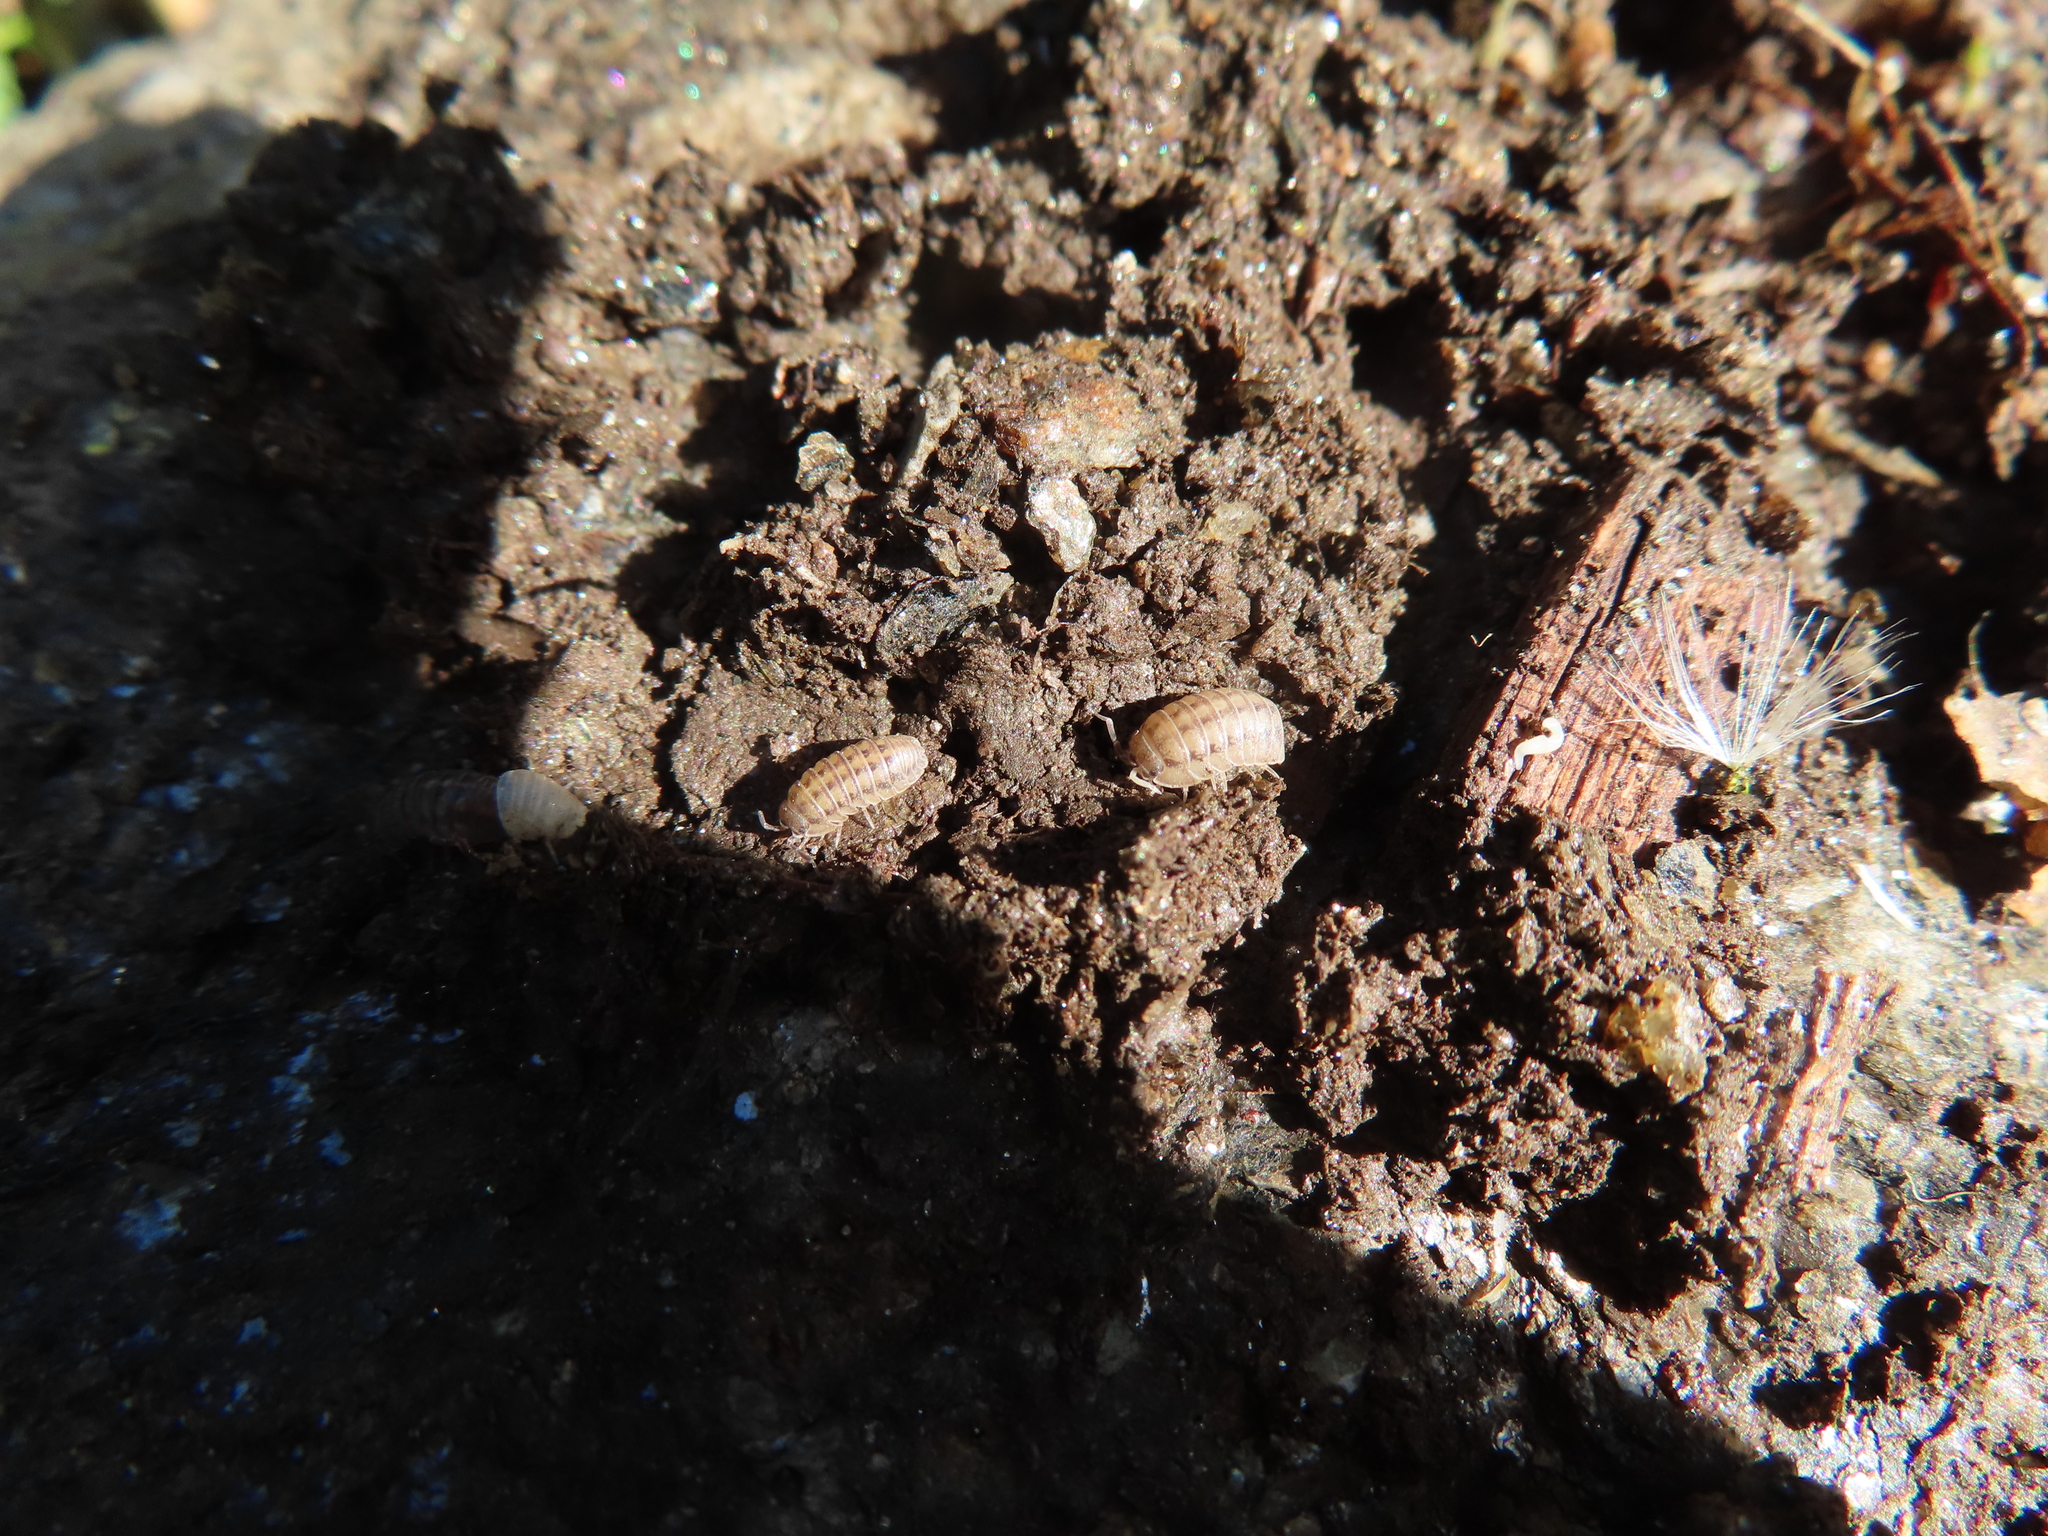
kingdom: Animalia
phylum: Arthropoda
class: Malacostraca
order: Isopoda
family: Armadillidiidae
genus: Armadillidium
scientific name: Armadillidium nasatum
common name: Isopod
